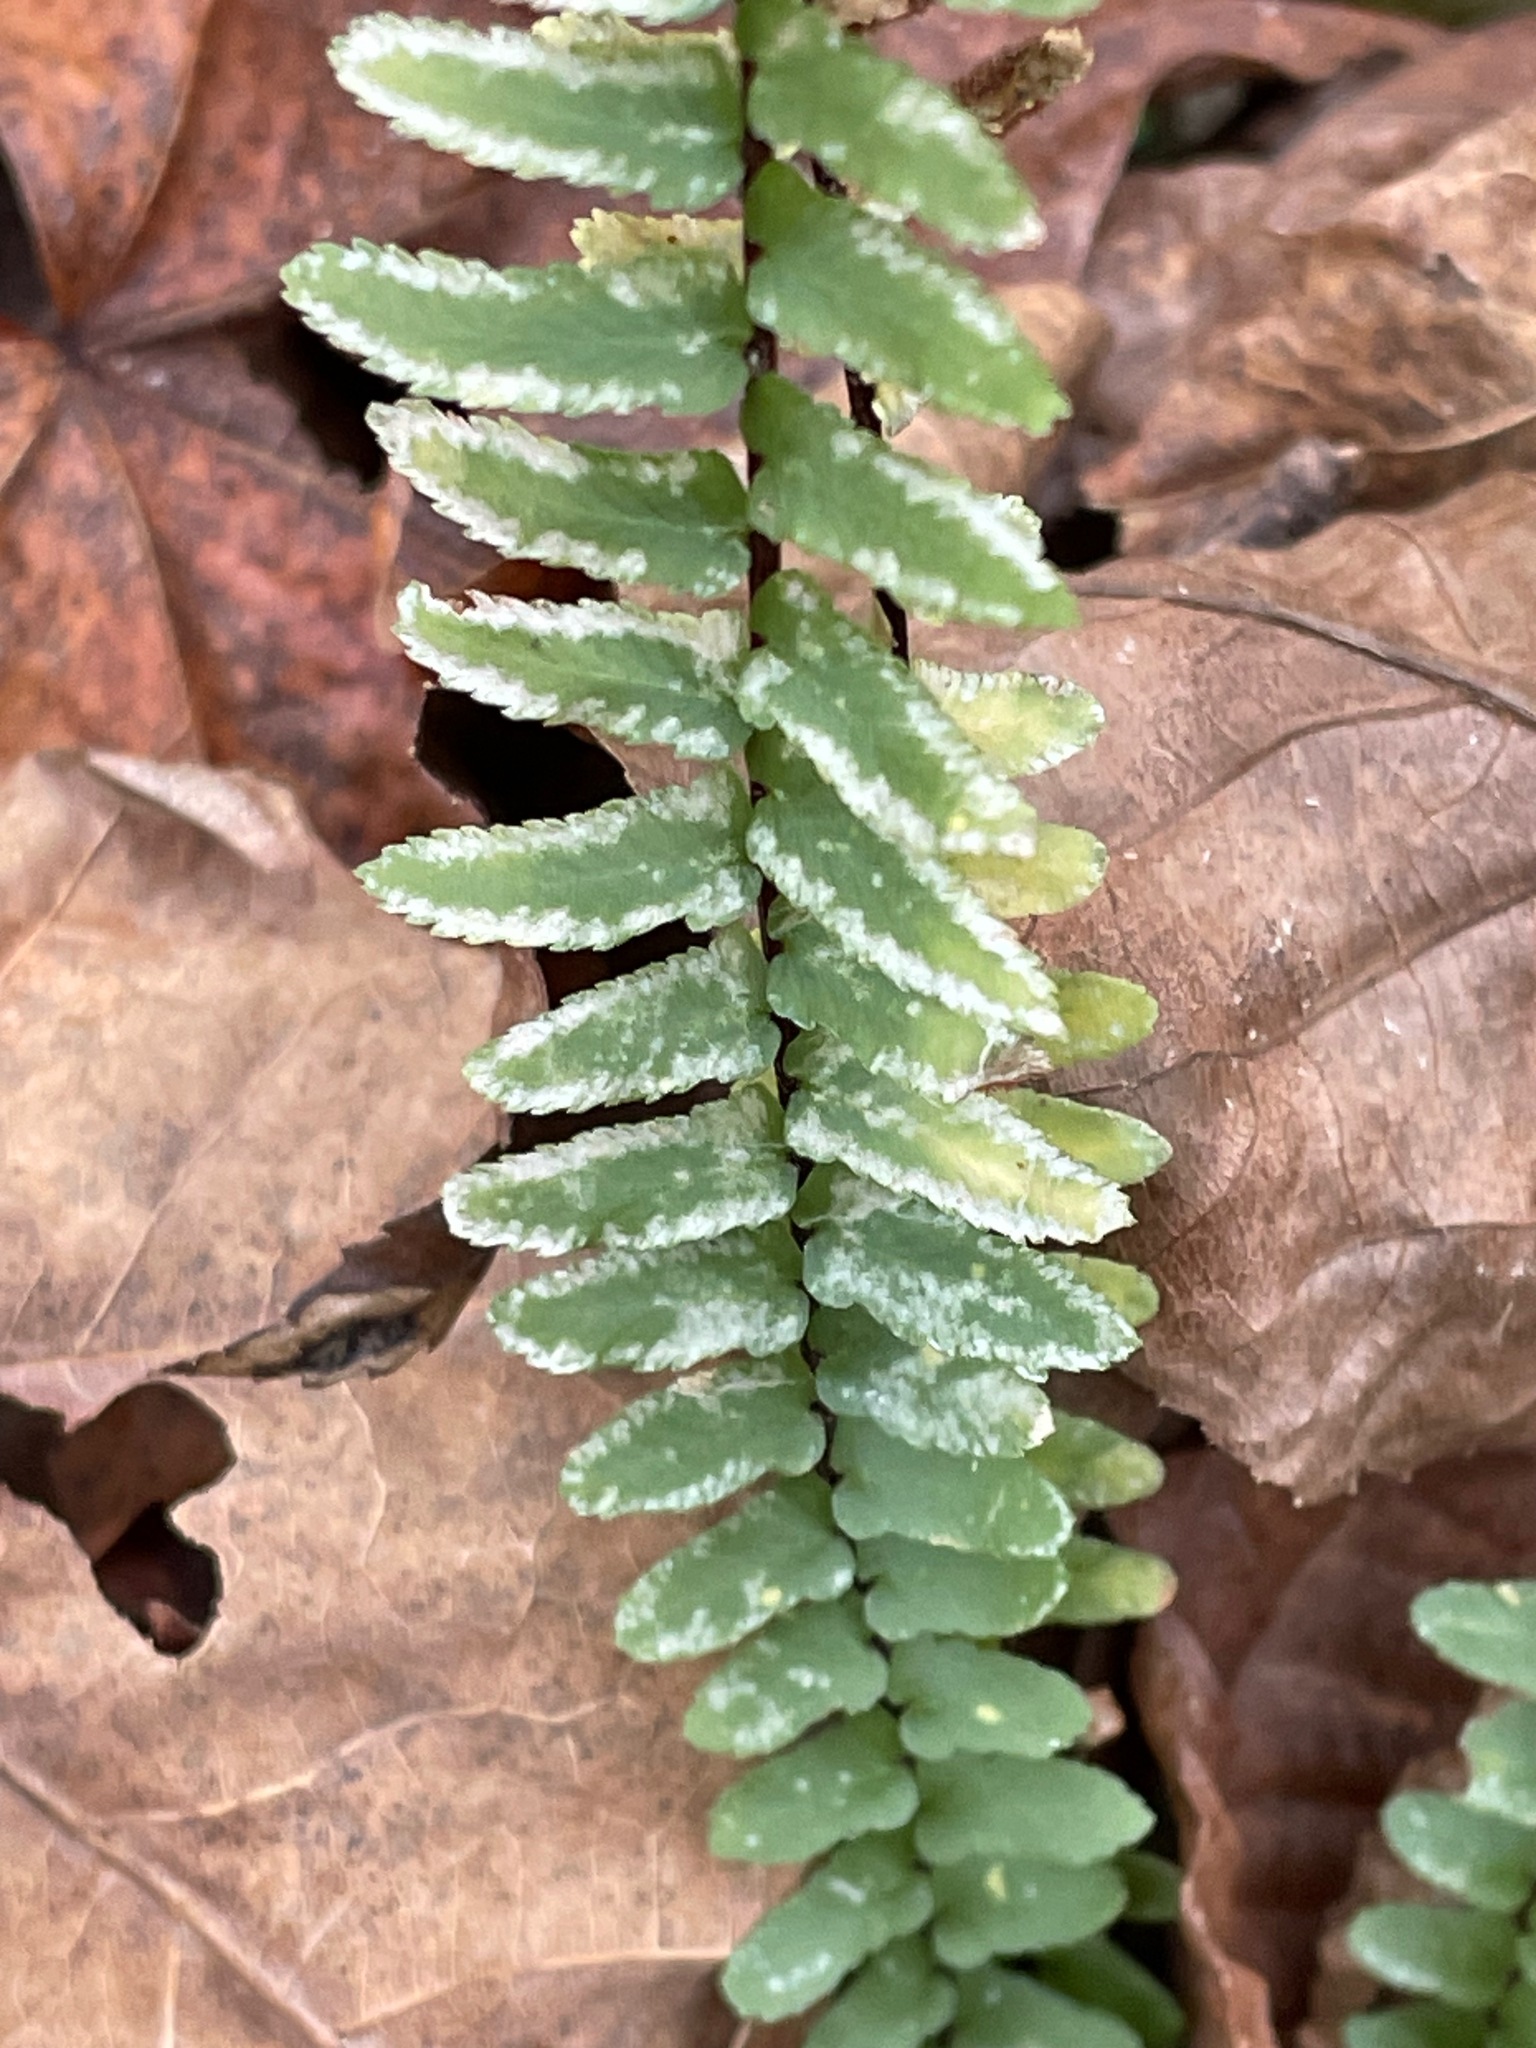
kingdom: Plantae
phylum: Tracheophyta
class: Polypodiopsida
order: Polypodiales
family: Aspleniaceae
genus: Asplenium
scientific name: Asplenium platyneuron
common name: Ebony spleenwort
